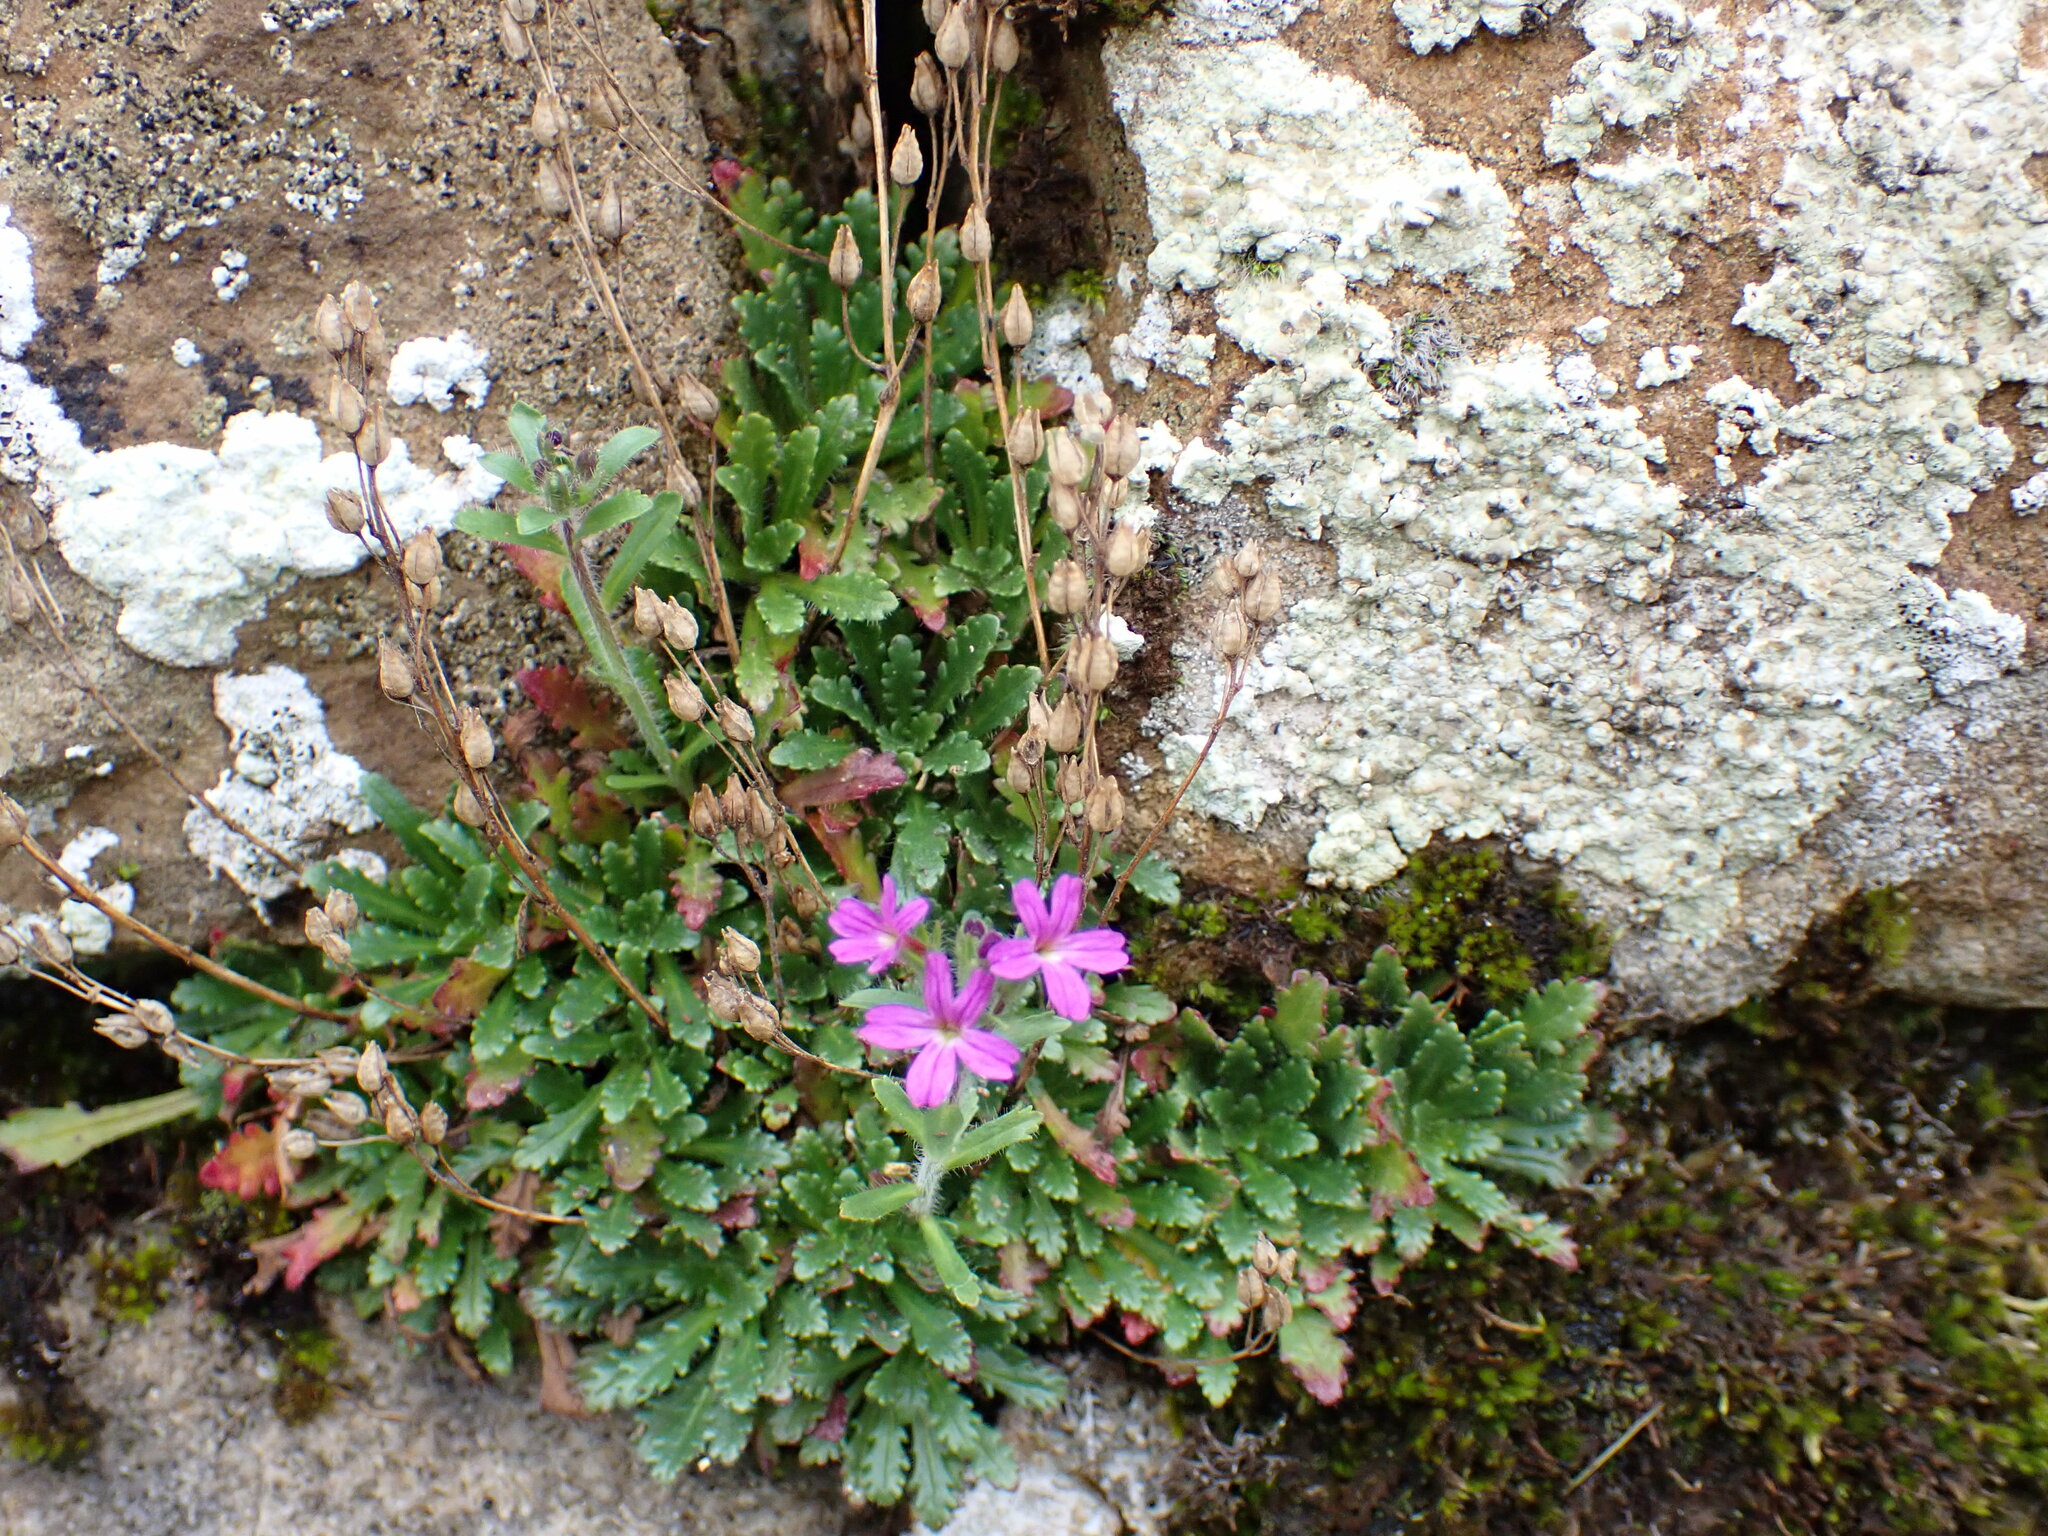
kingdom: Plantae
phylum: Tracheophyta
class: Magnoliopsida
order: Lamiales
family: Plantaginaceae
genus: Erinus
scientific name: Erinus alpinus
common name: Fairy foxglove
